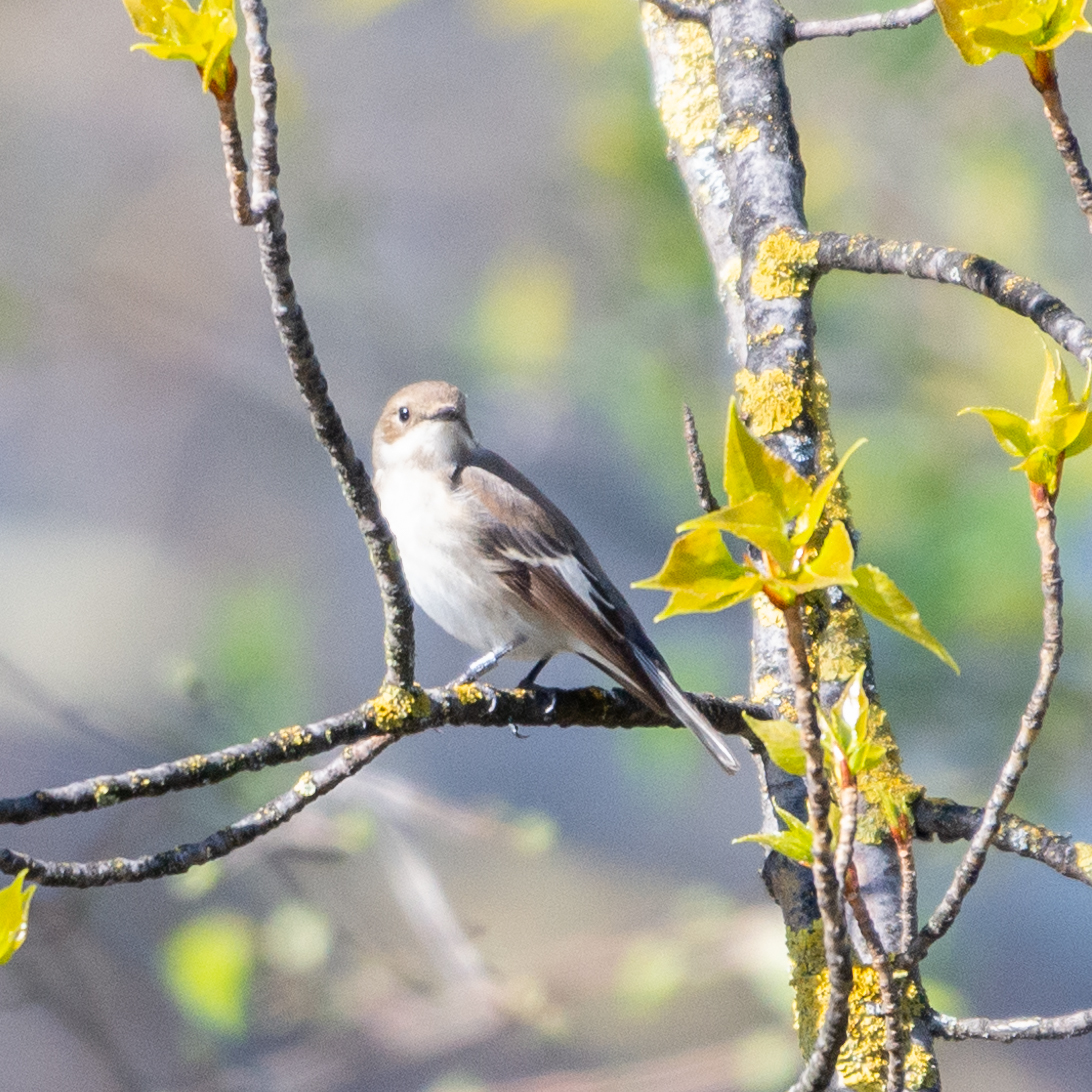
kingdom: Animalia
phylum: Chordata
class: Aves
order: Passeriformes
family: Muscicapidae
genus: Ficedula
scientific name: Ficedula hypoleuca
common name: European pied flycatcher
